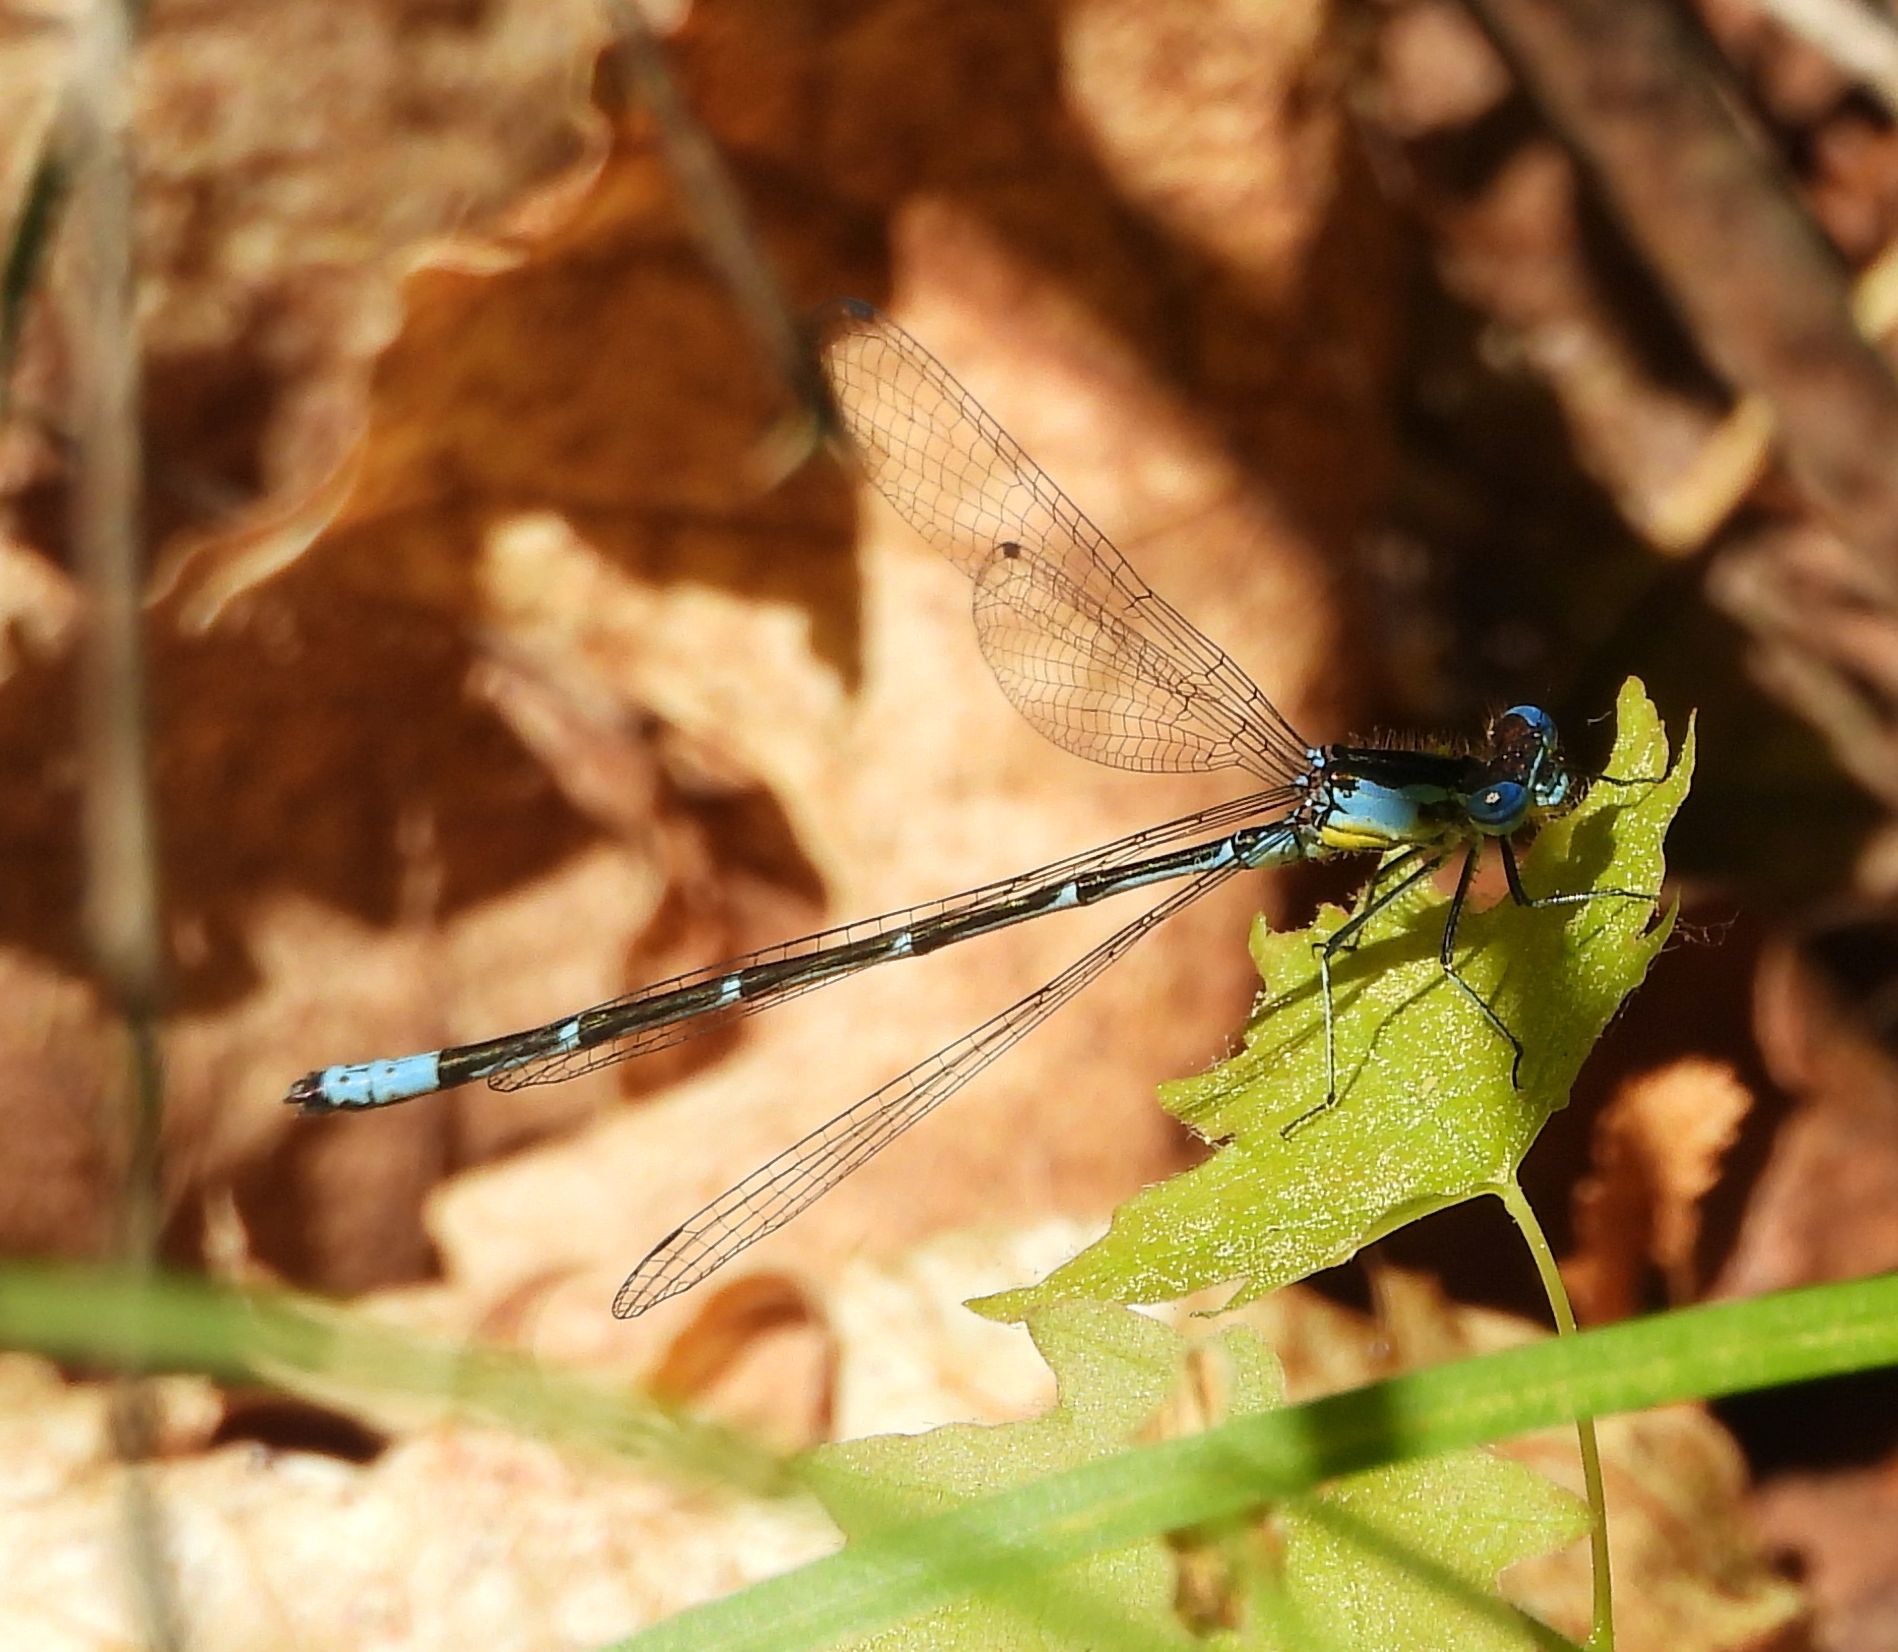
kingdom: Animalia
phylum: Arthropoda
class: Insecta
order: Odonata
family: Coenagrionidae
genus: Chromagrion
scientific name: Chromagrion conditum
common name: Aurora damsel
